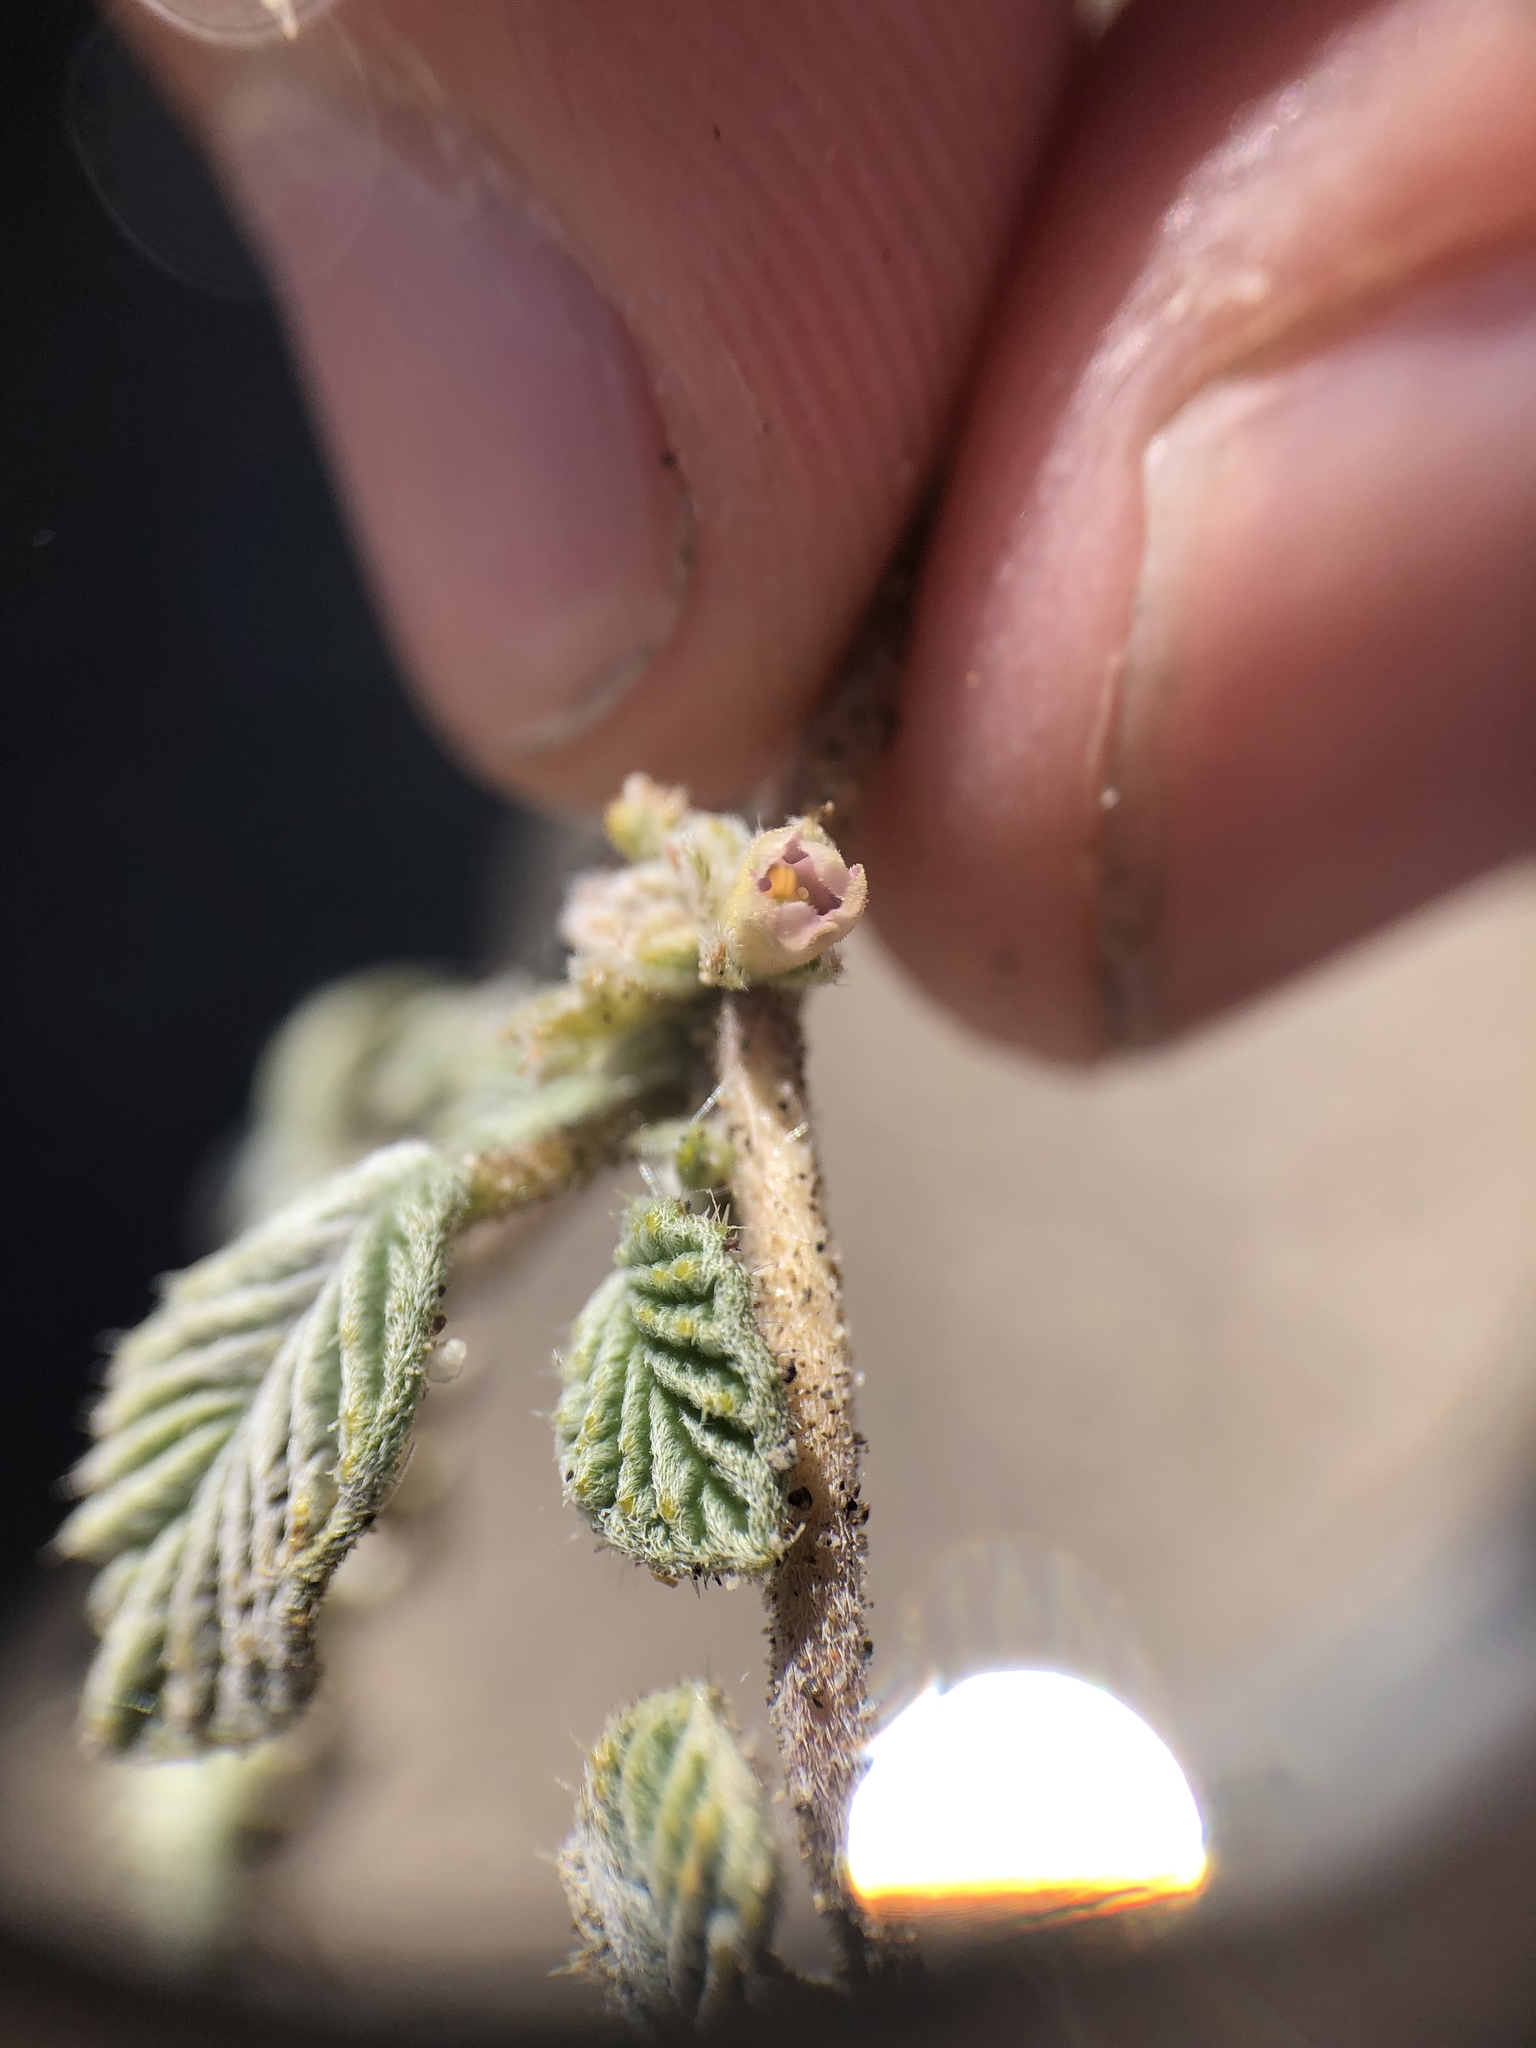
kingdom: Plantae
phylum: Tracheophyta
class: Magnoliopsida
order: Boraginales
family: Ehretiaceae
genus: Tiquilia
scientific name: Tiquilia plicata
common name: Fan-leaf tiquilia
